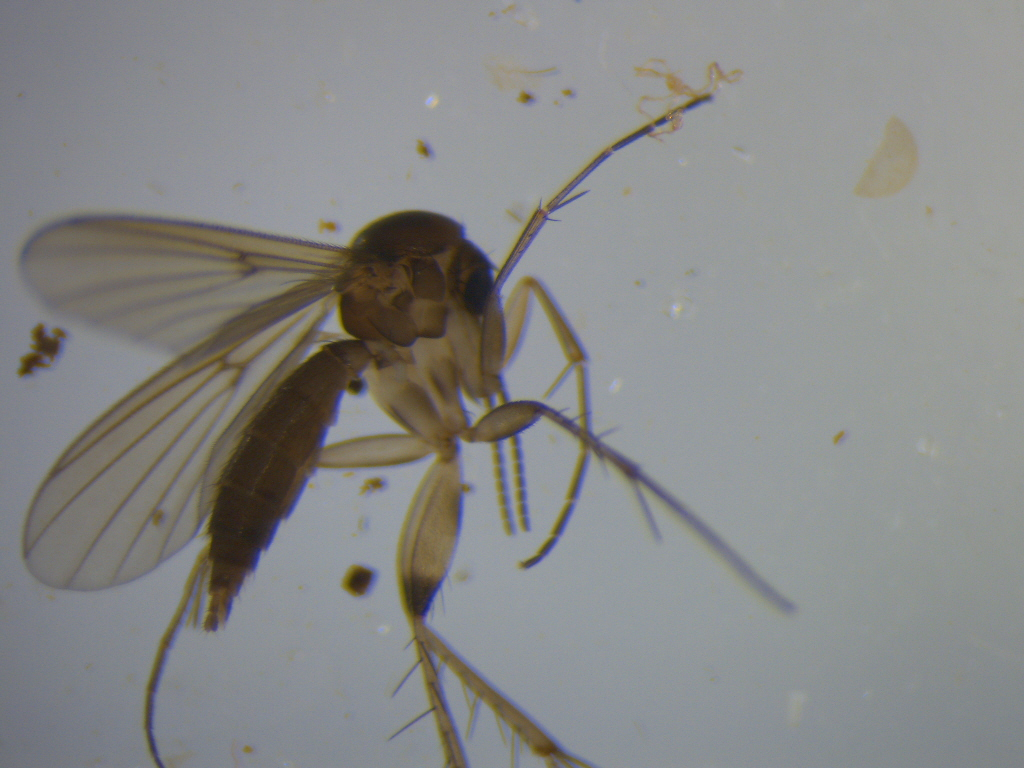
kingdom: Animalia
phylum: Arthropoda
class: Insecta
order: Diptera
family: Mycetophilidae
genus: Mycetophila
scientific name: Mycetophila solitaris
